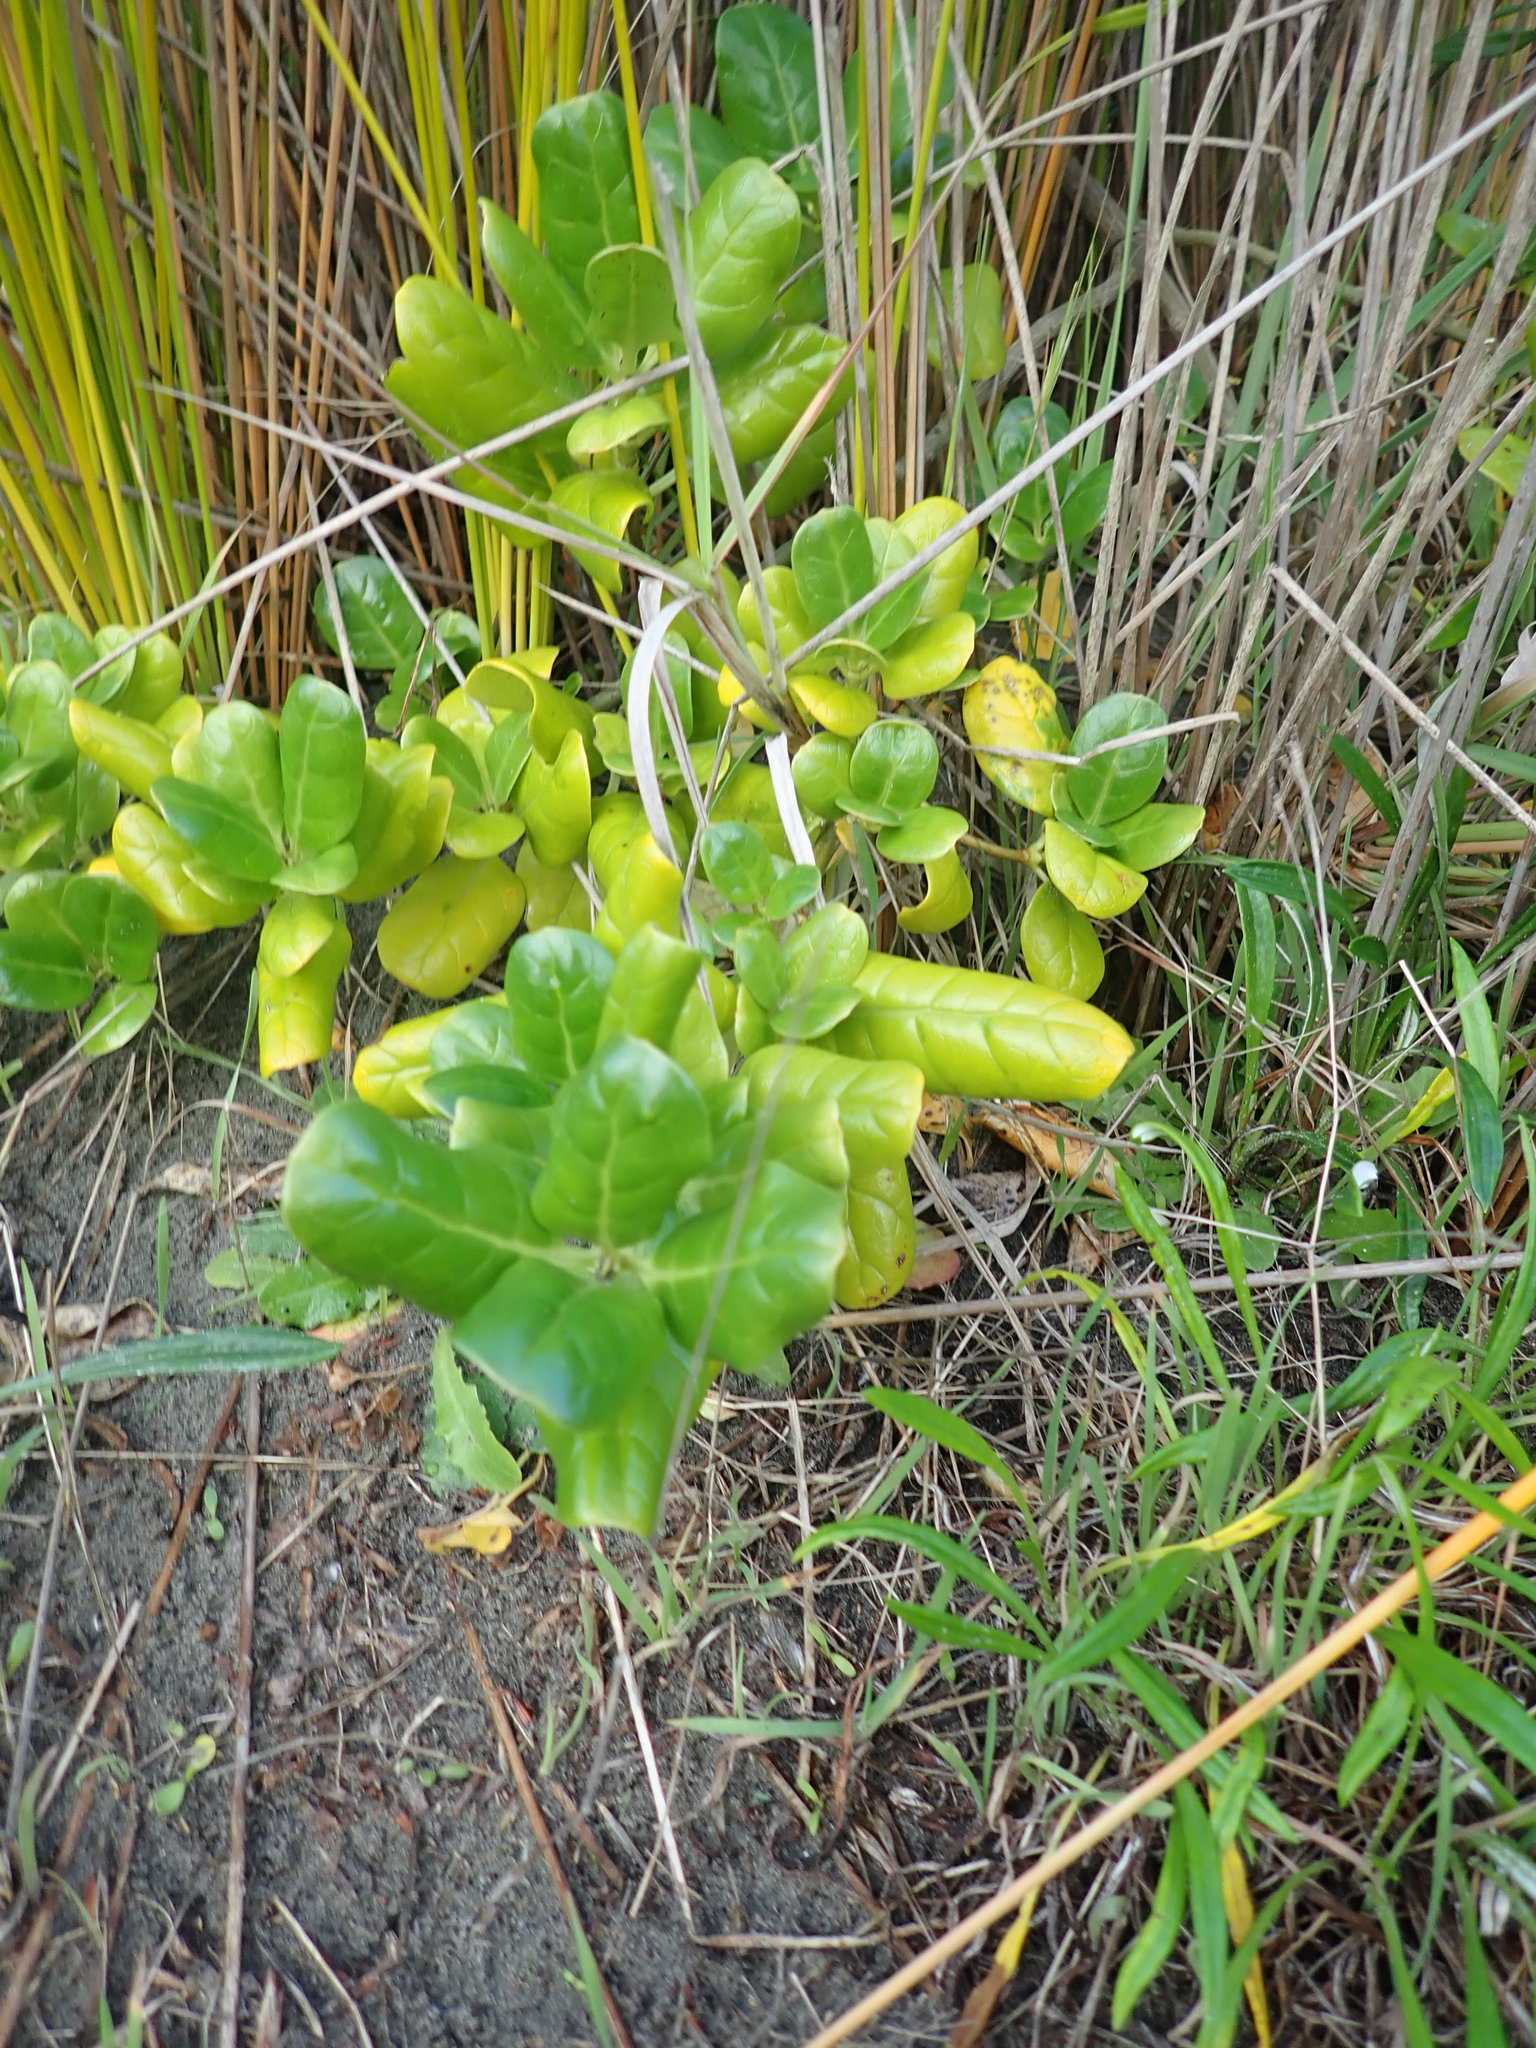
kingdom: Plantae
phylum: Tracheophyta
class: Magnoliopsida
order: Gentianales
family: Rubiaceae
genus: Coprosma
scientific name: Coprosma repens
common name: Tree bedstraw
